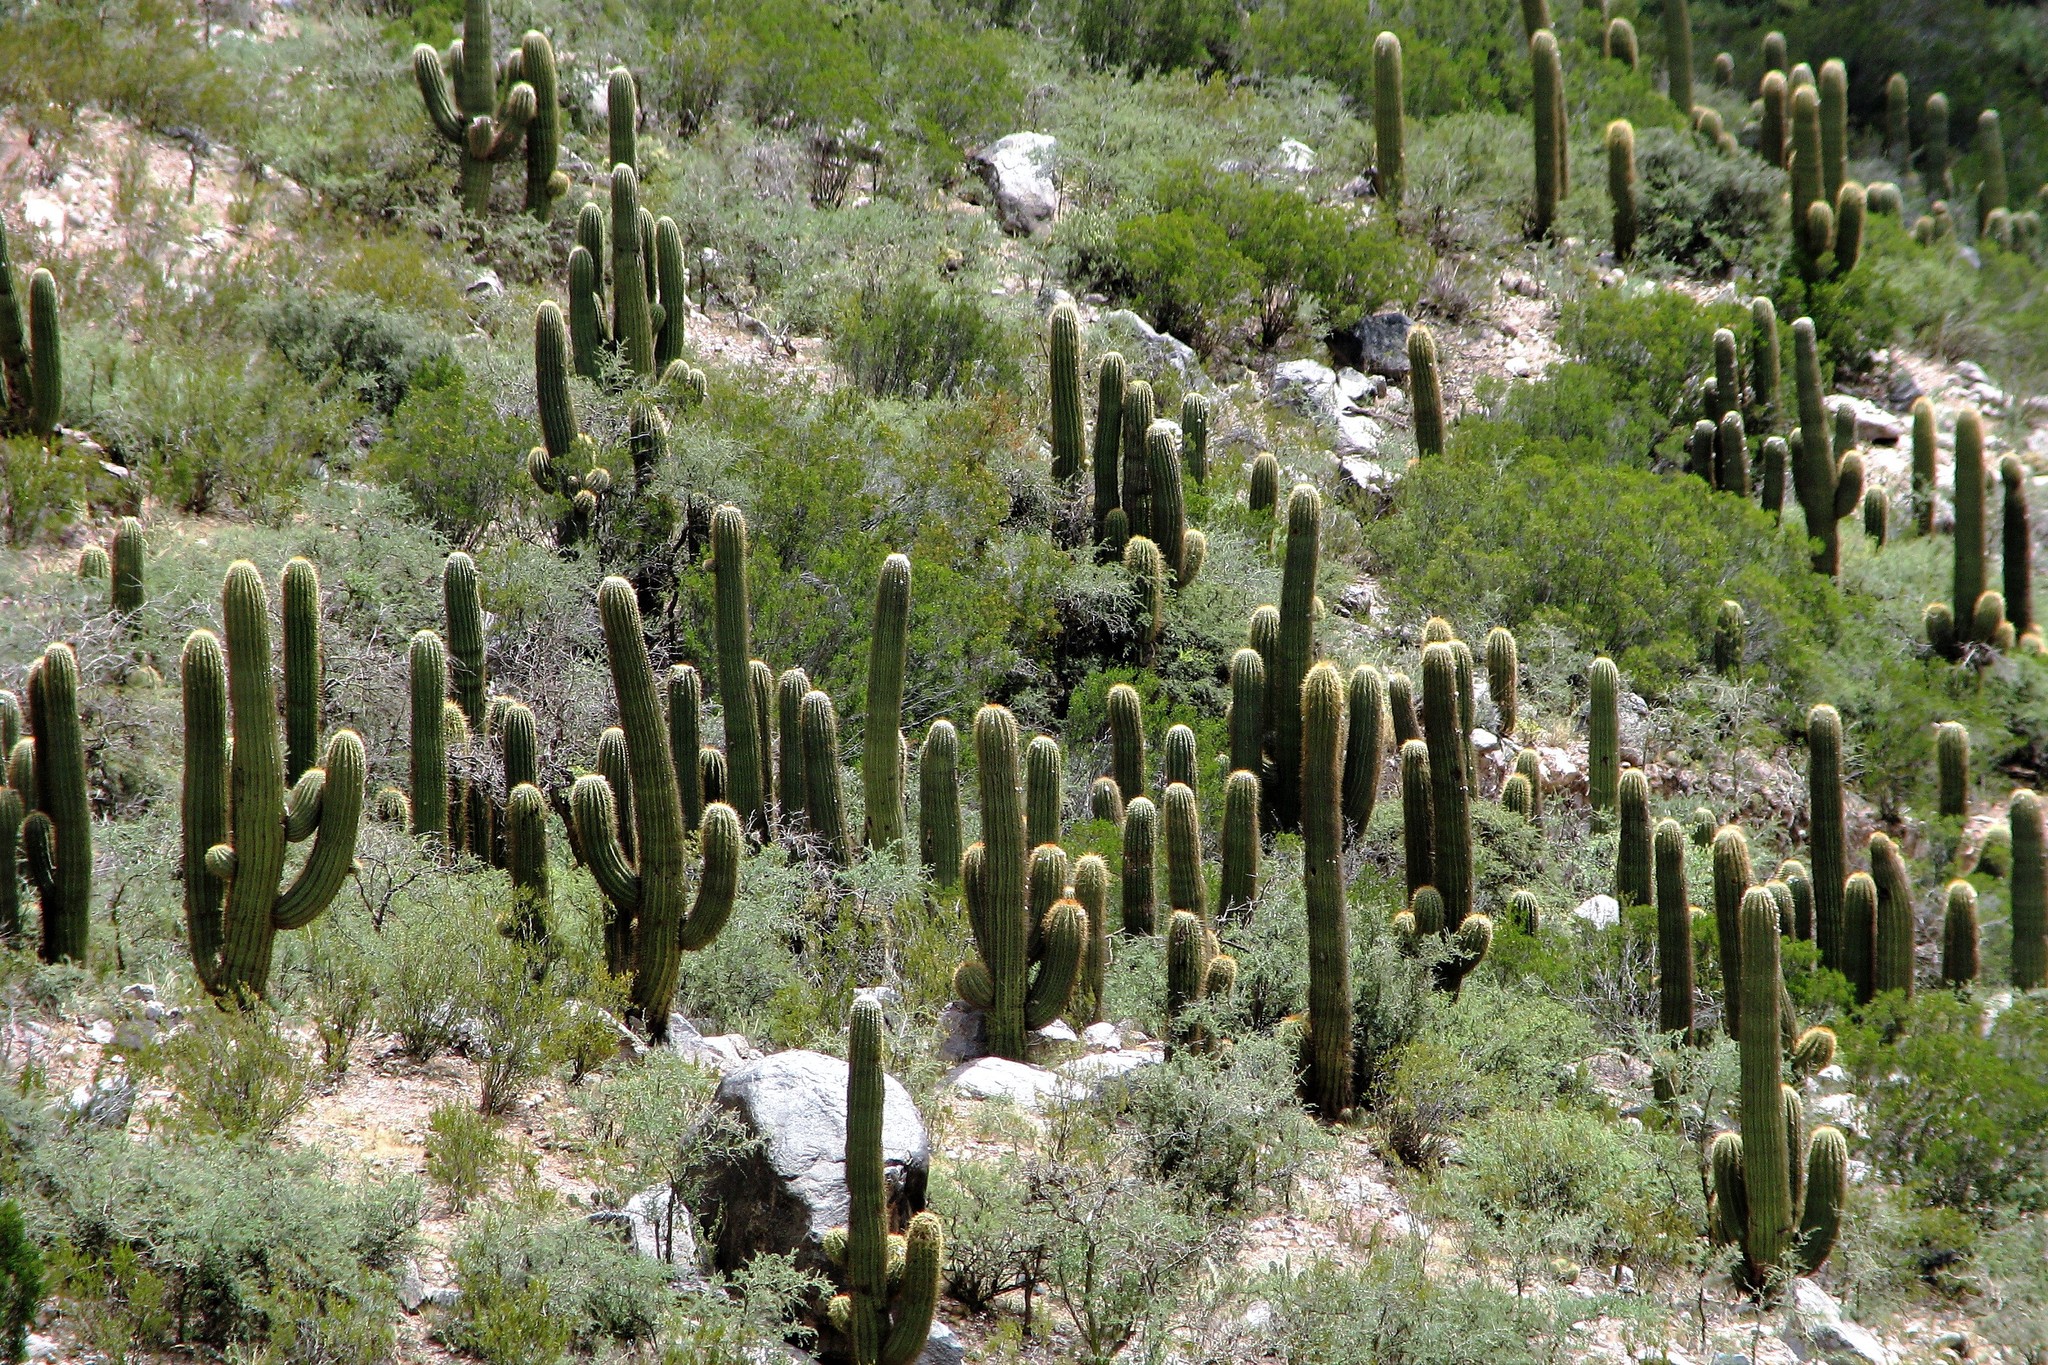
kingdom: Plantae
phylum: Tracheophyta
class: Magnoliopsida
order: Caryophyllales
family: Cactaceae
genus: Leucostele
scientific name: Leucostele terscheckii
